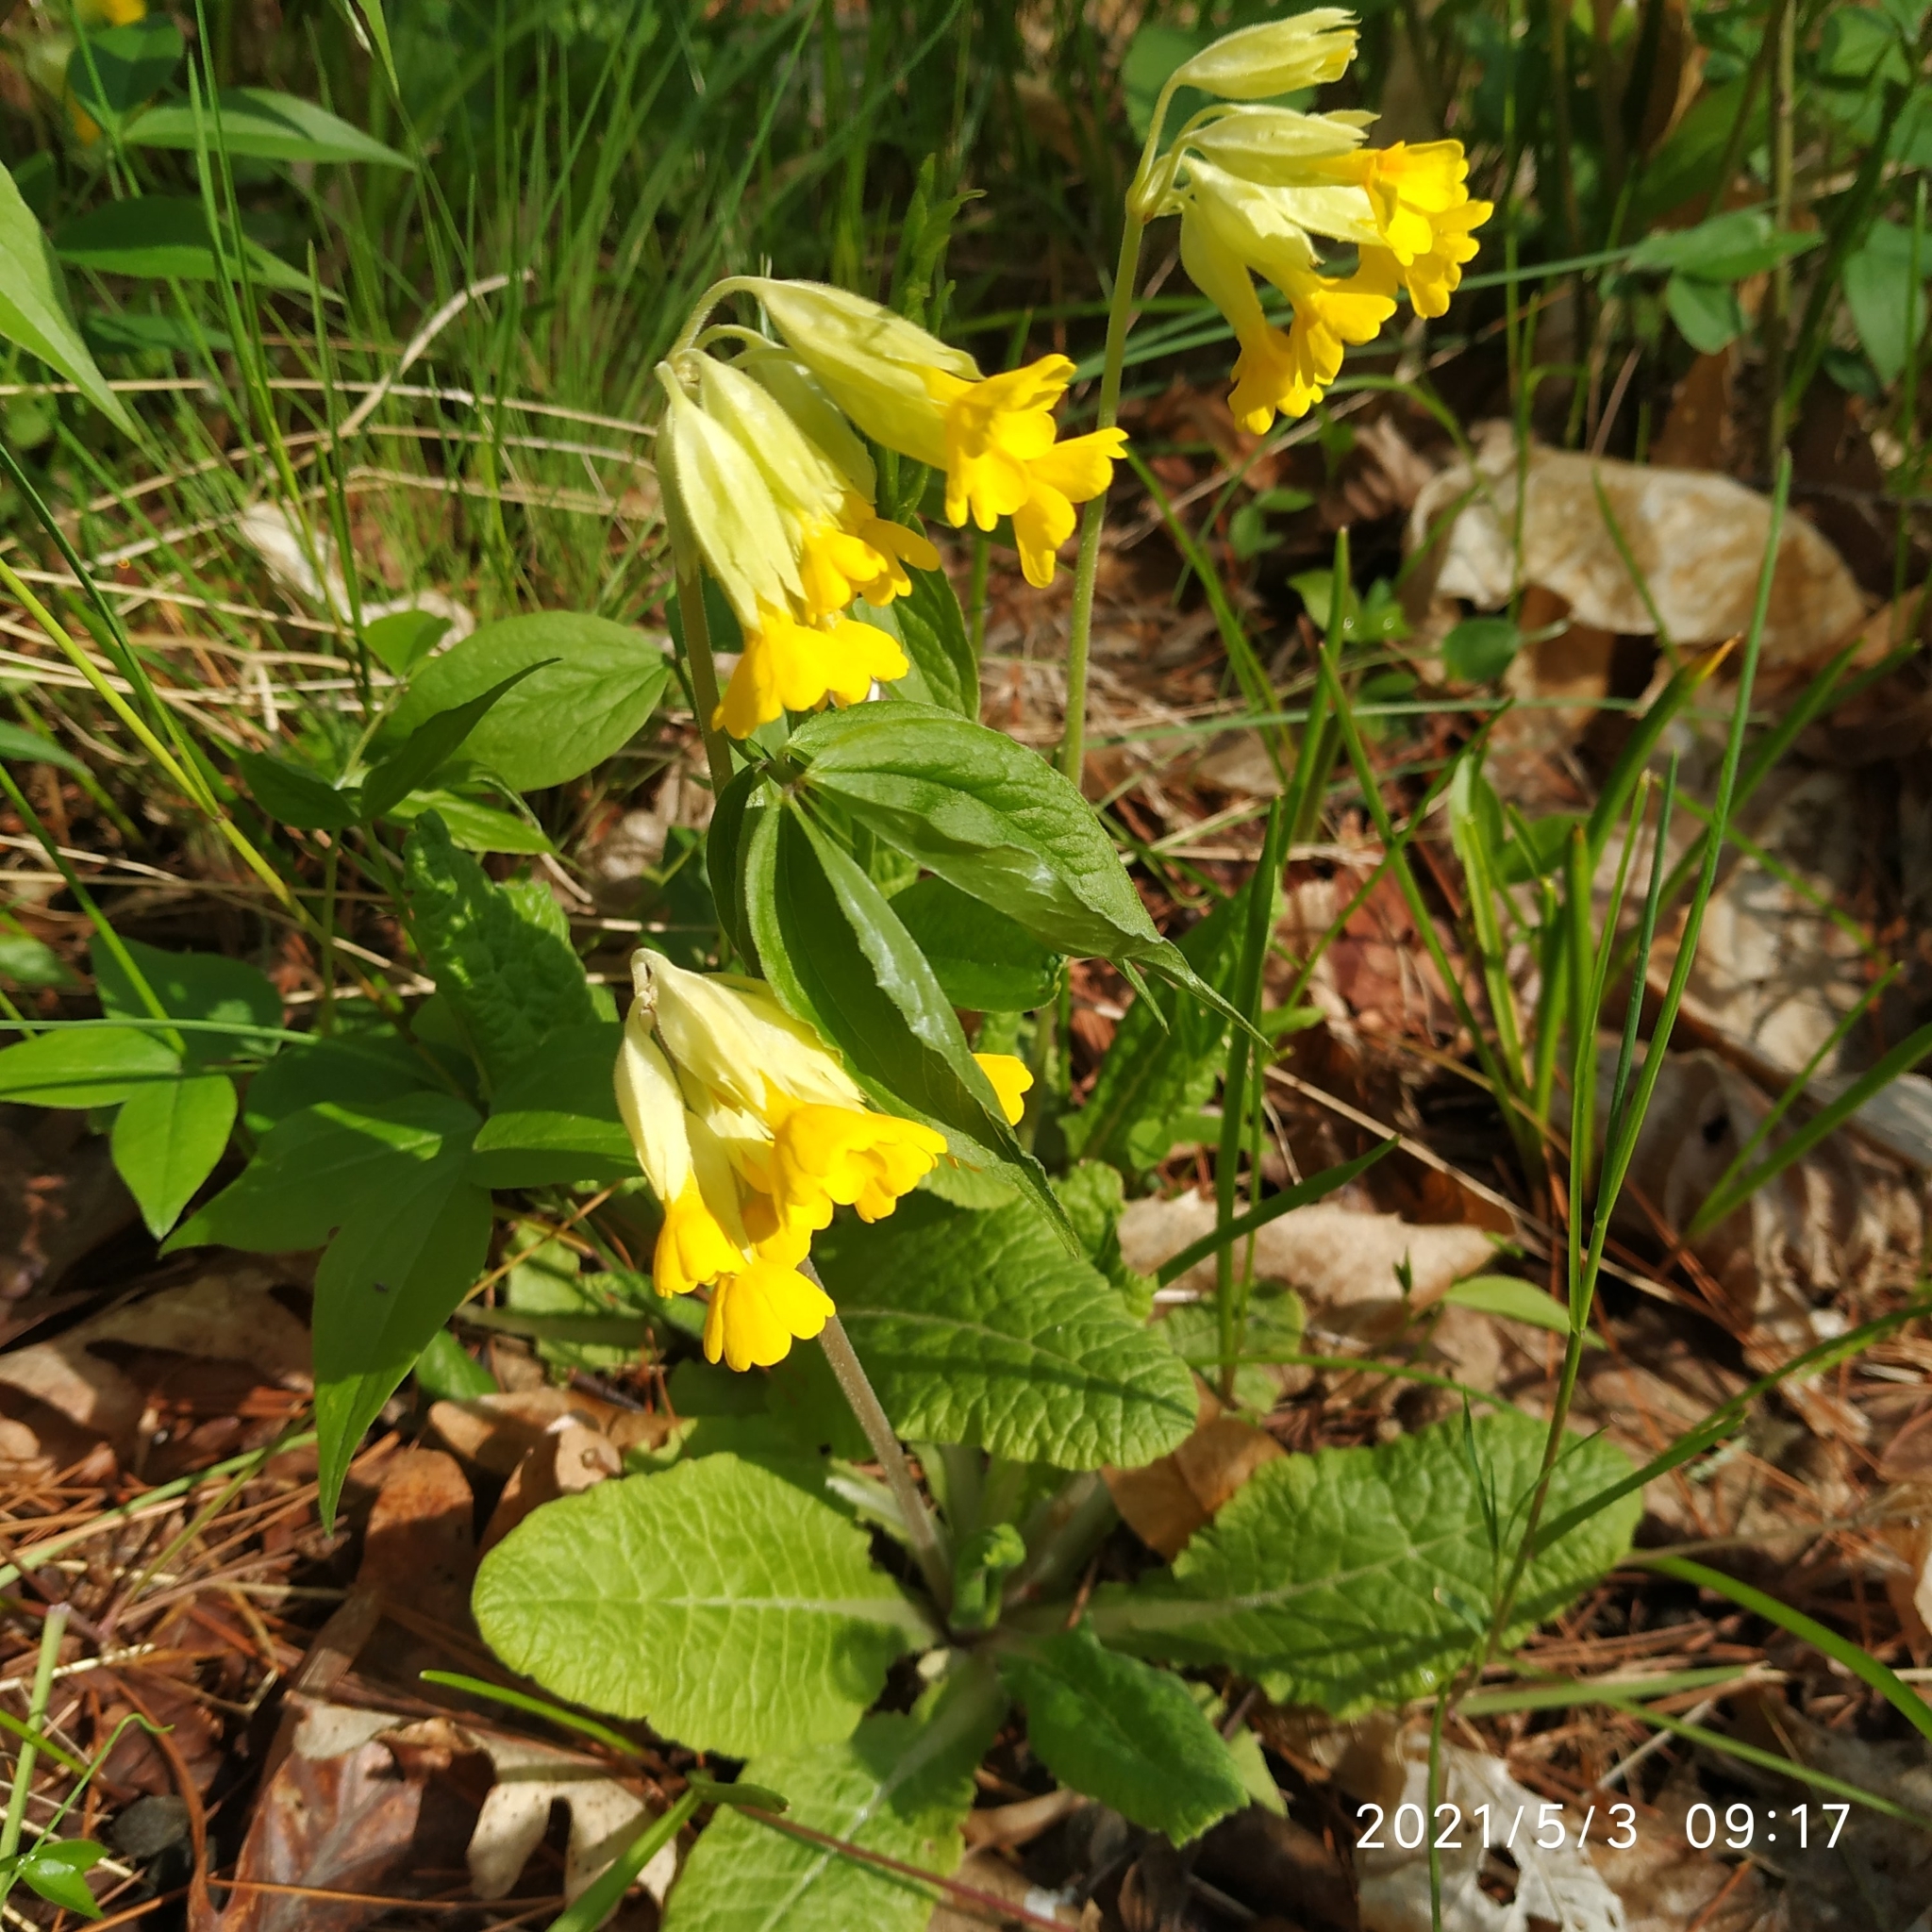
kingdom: Plantae
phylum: Tracheophyta
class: Magnoliopsida
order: Ericales
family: Primulaceae
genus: Primula
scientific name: Primula veris
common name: Cowslip
